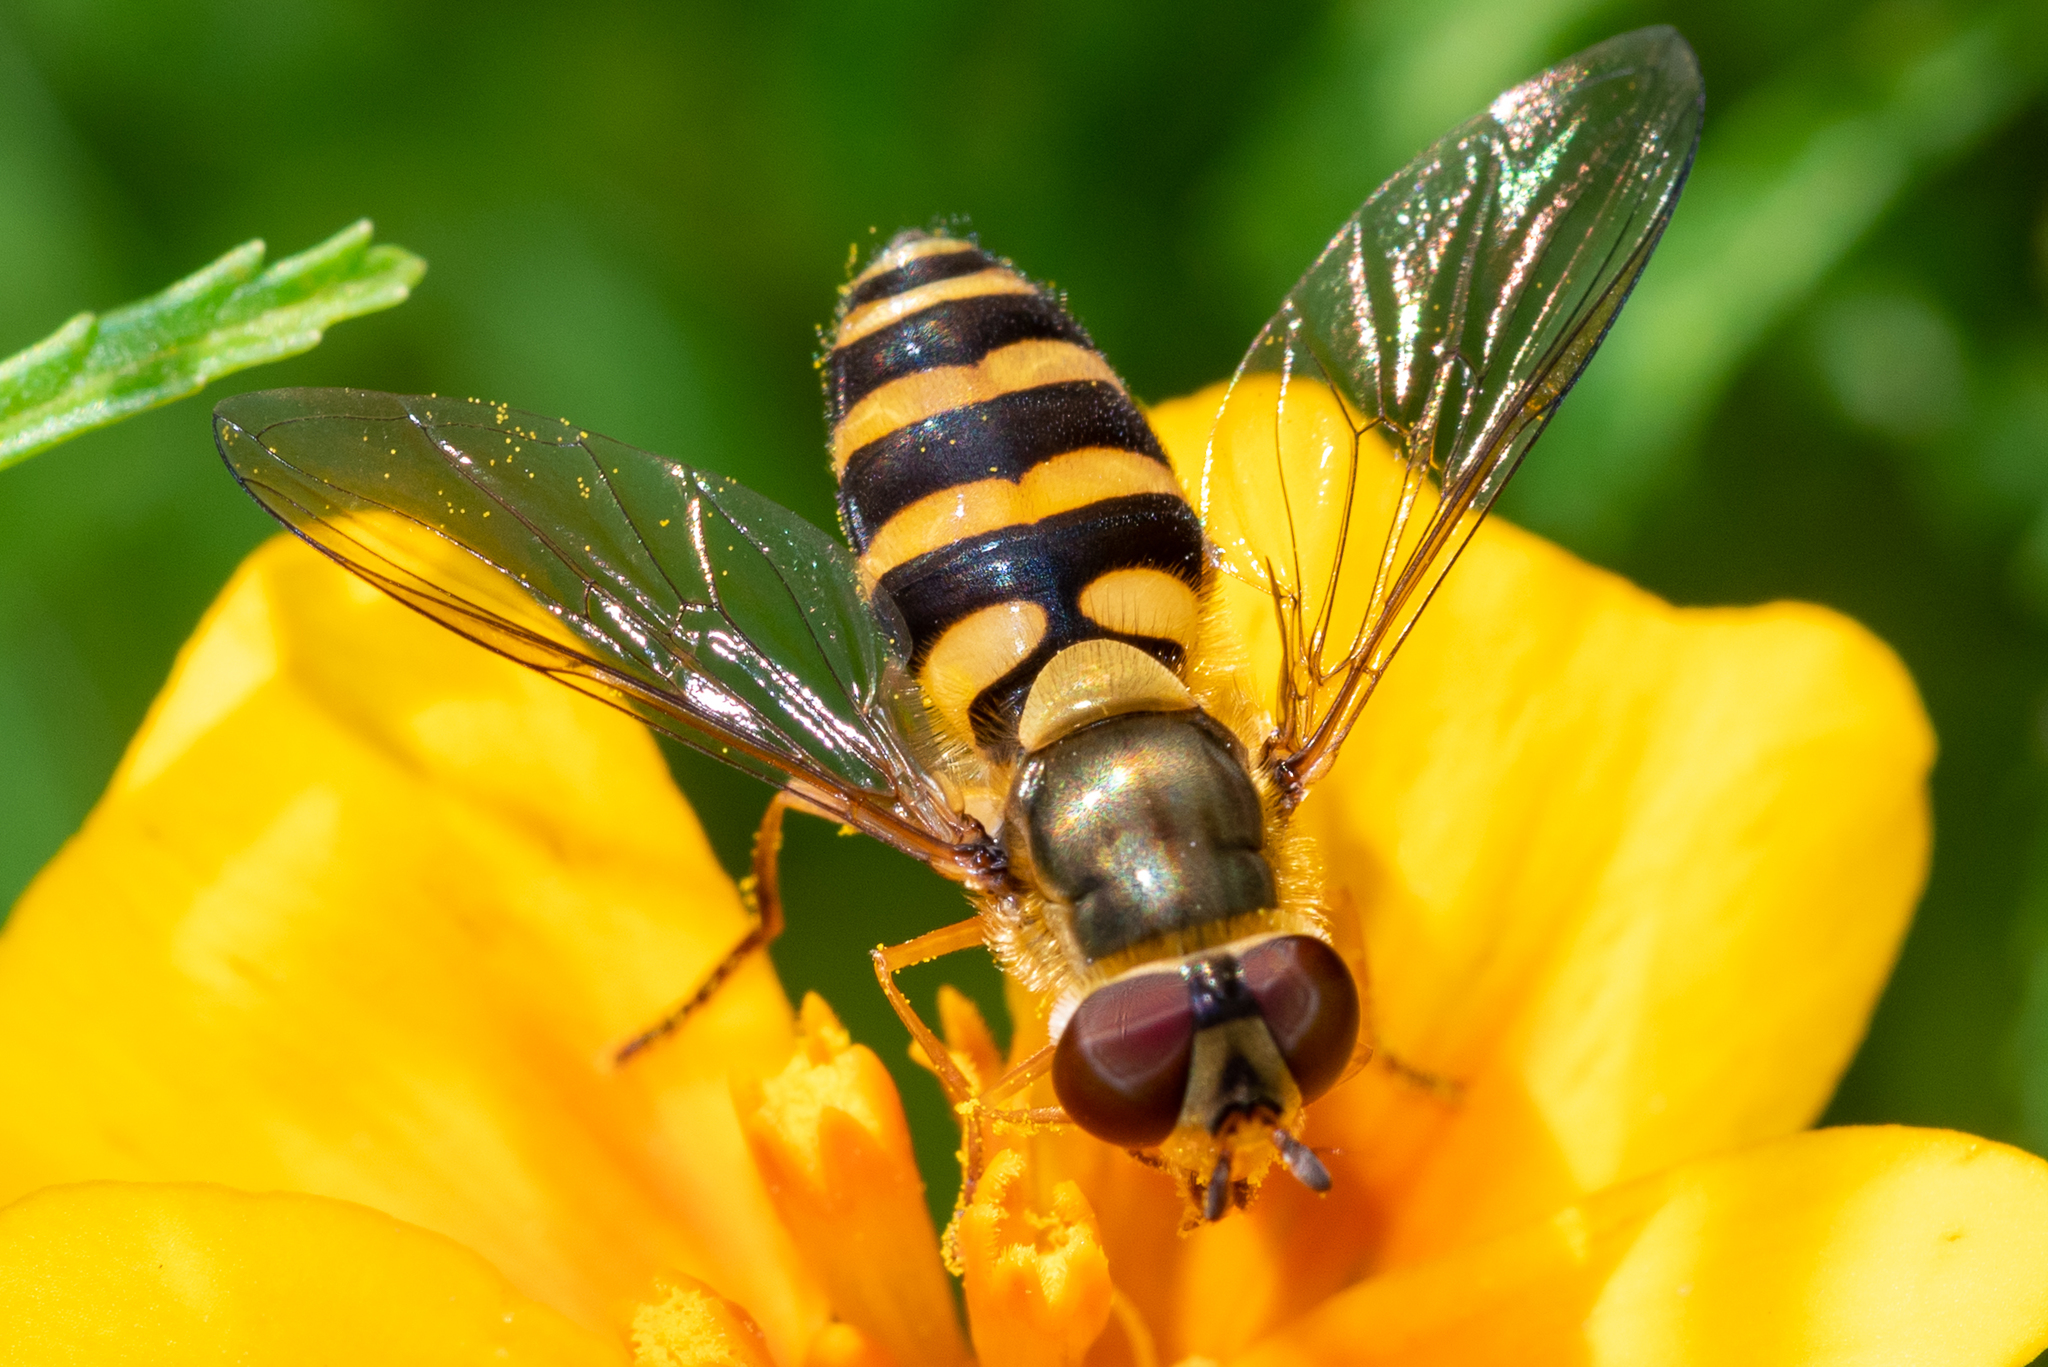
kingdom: Animalia
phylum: Arthropoda
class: Insecta
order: Diptera
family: Syrphidae
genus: Syrphus
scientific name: Syrphus
